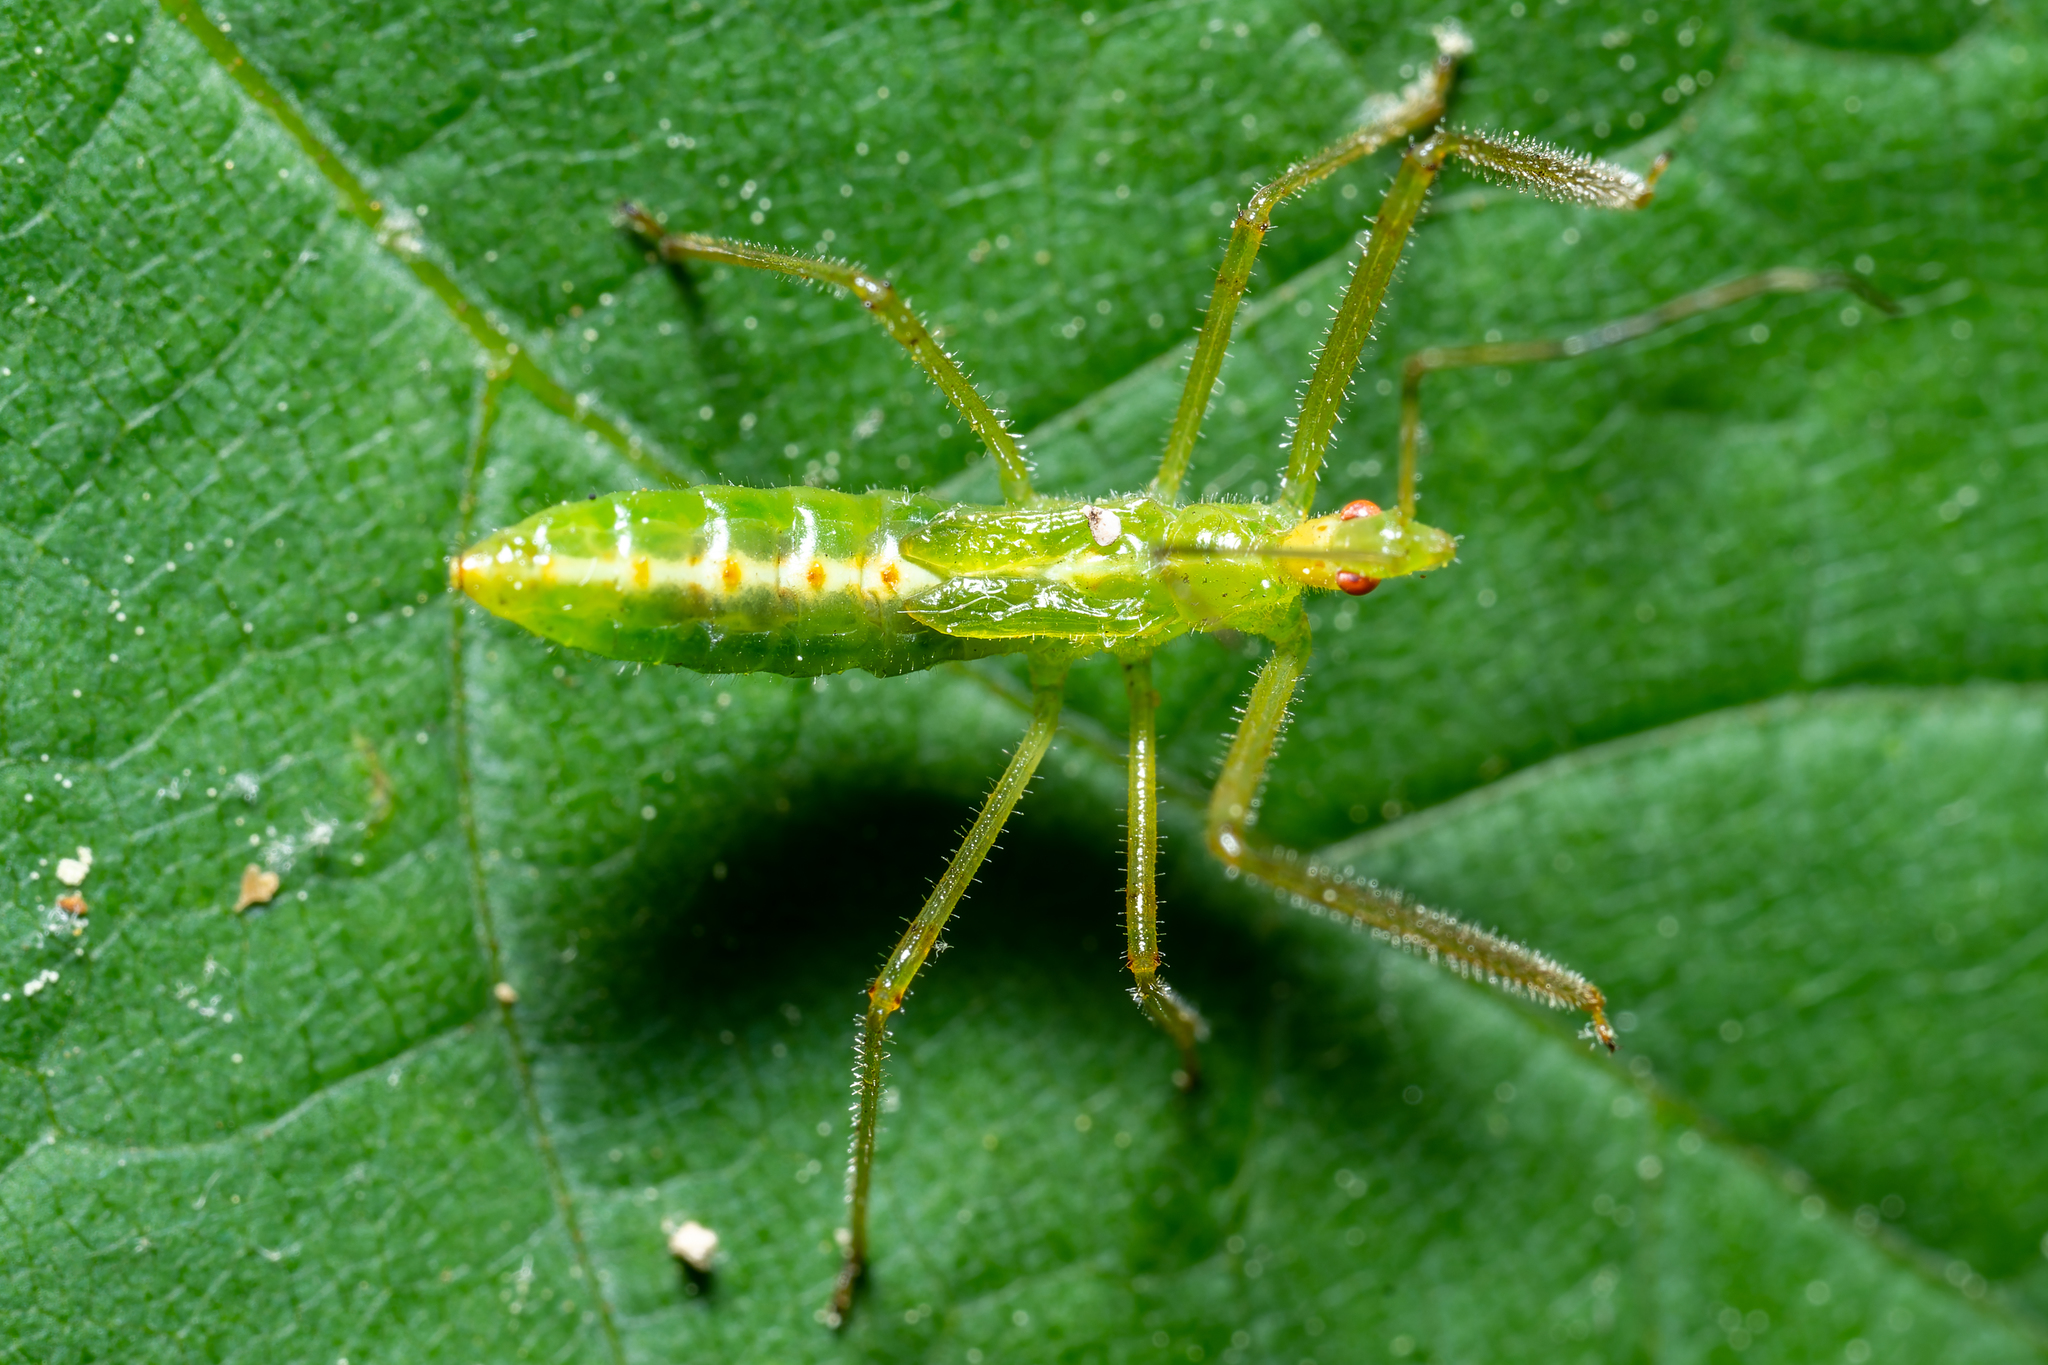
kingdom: Animalia
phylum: Arthropoda
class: Insecta
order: Hemiptera
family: Reduviidae
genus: Zelus
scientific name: Zelus luridus
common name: Pale green assassin bug
